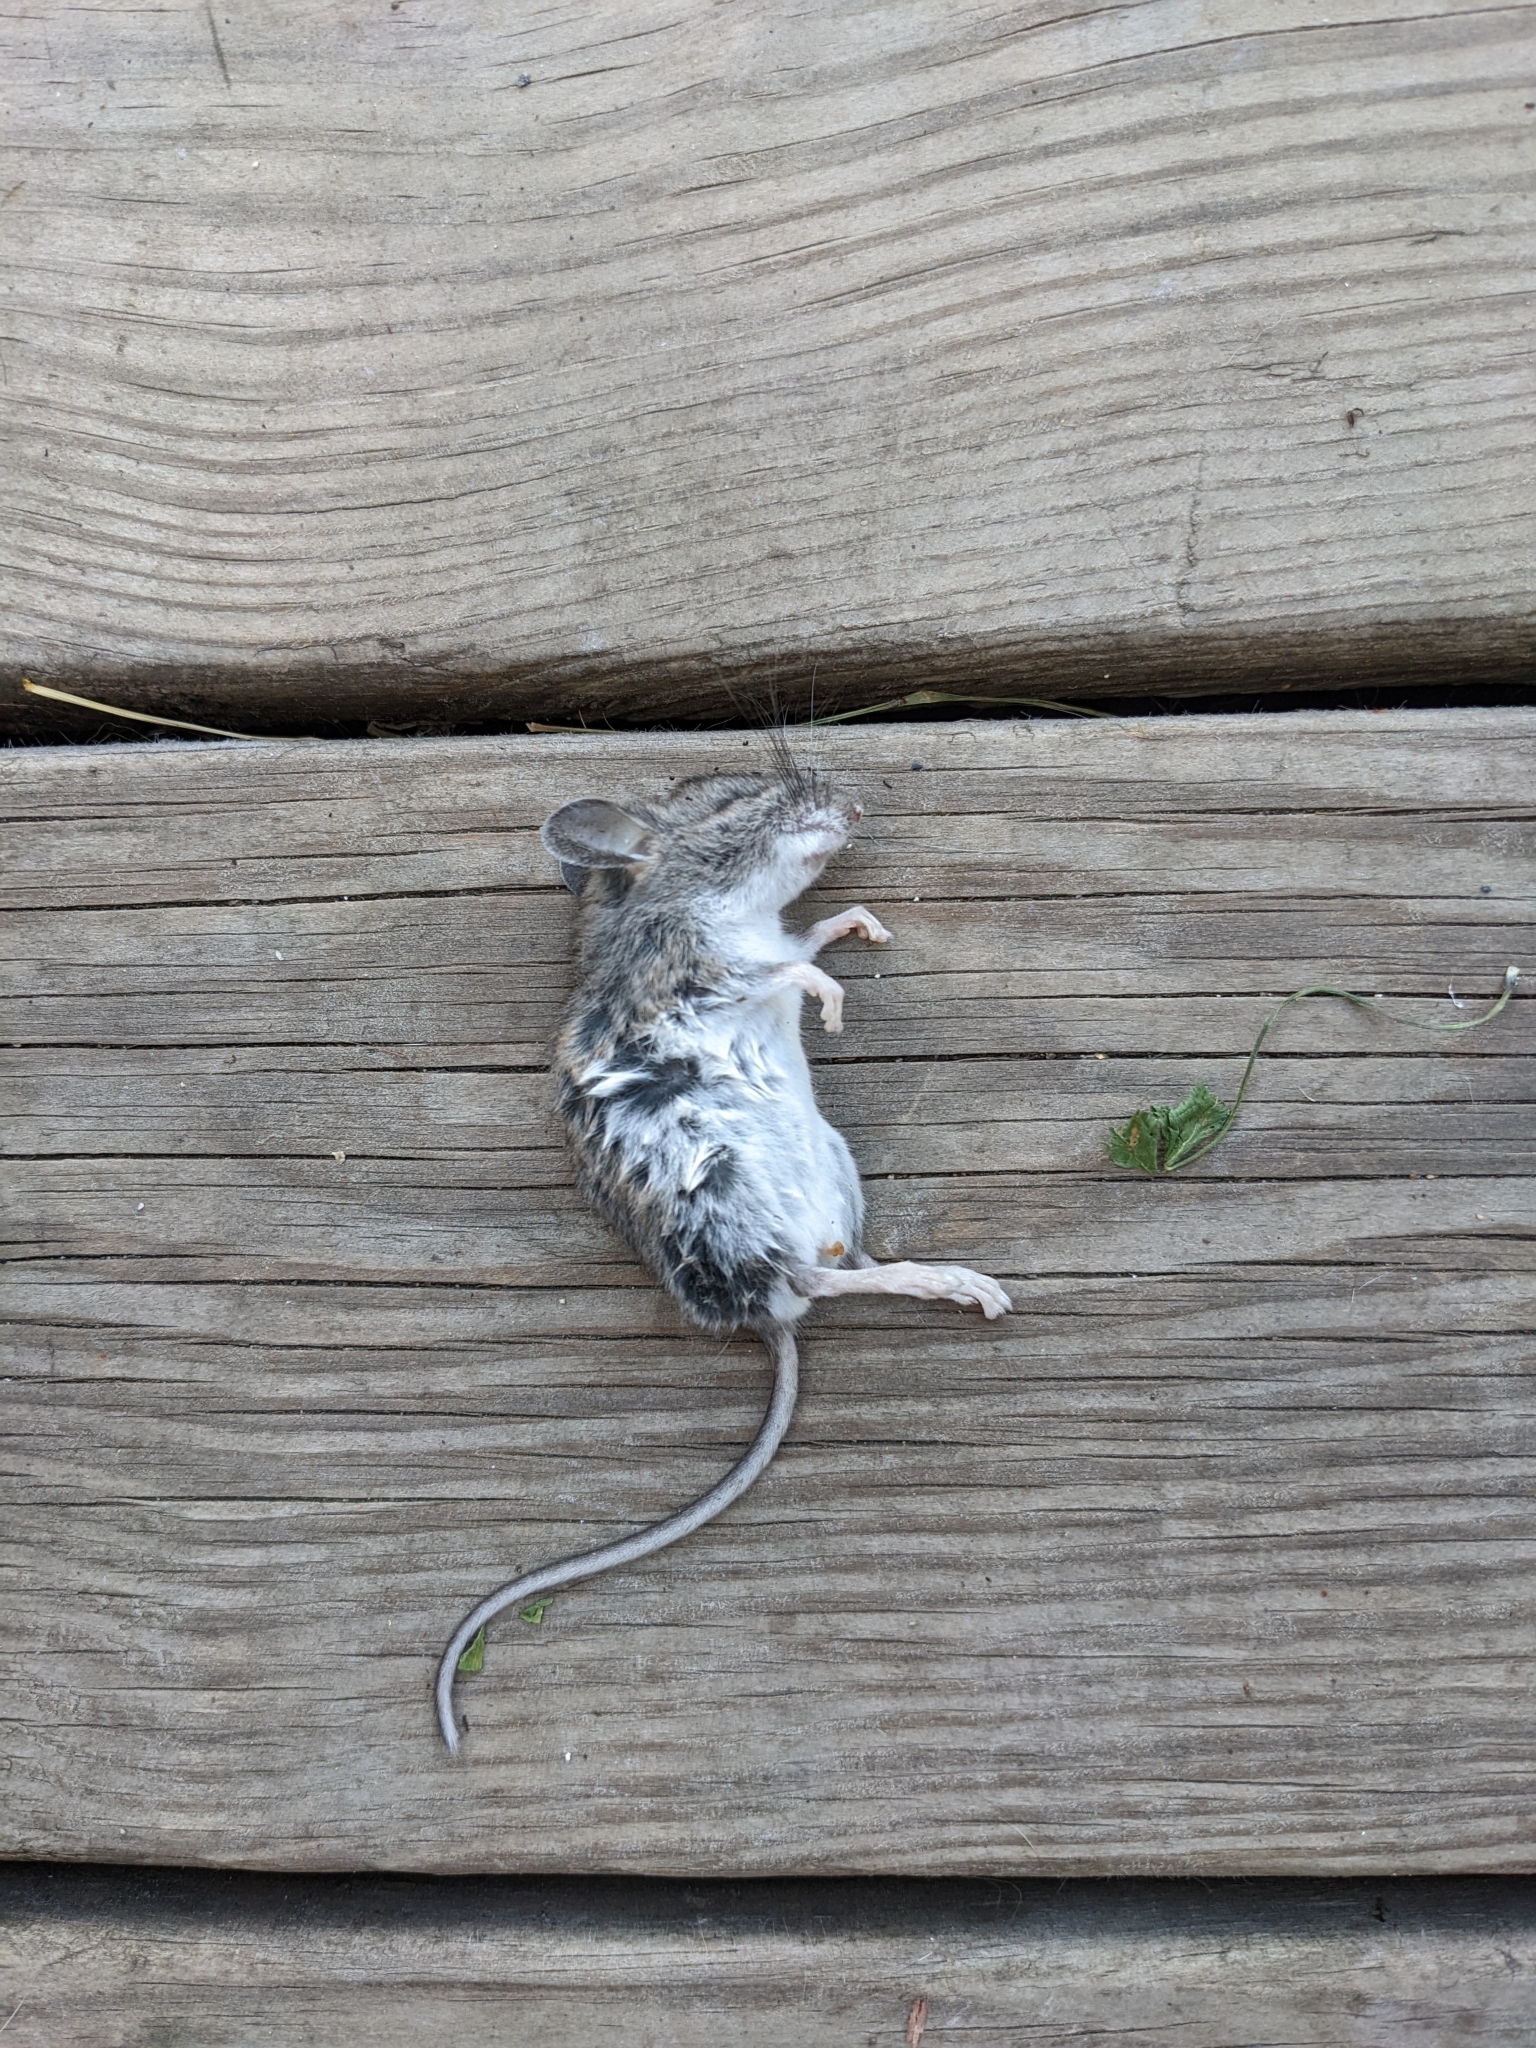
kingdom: Animalia
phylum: Chordata
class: Mammalia
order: Rodentia
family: Cricetidae
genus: Peromyscus
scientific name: Peromyscus leucopus
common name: White-footed deermouse
